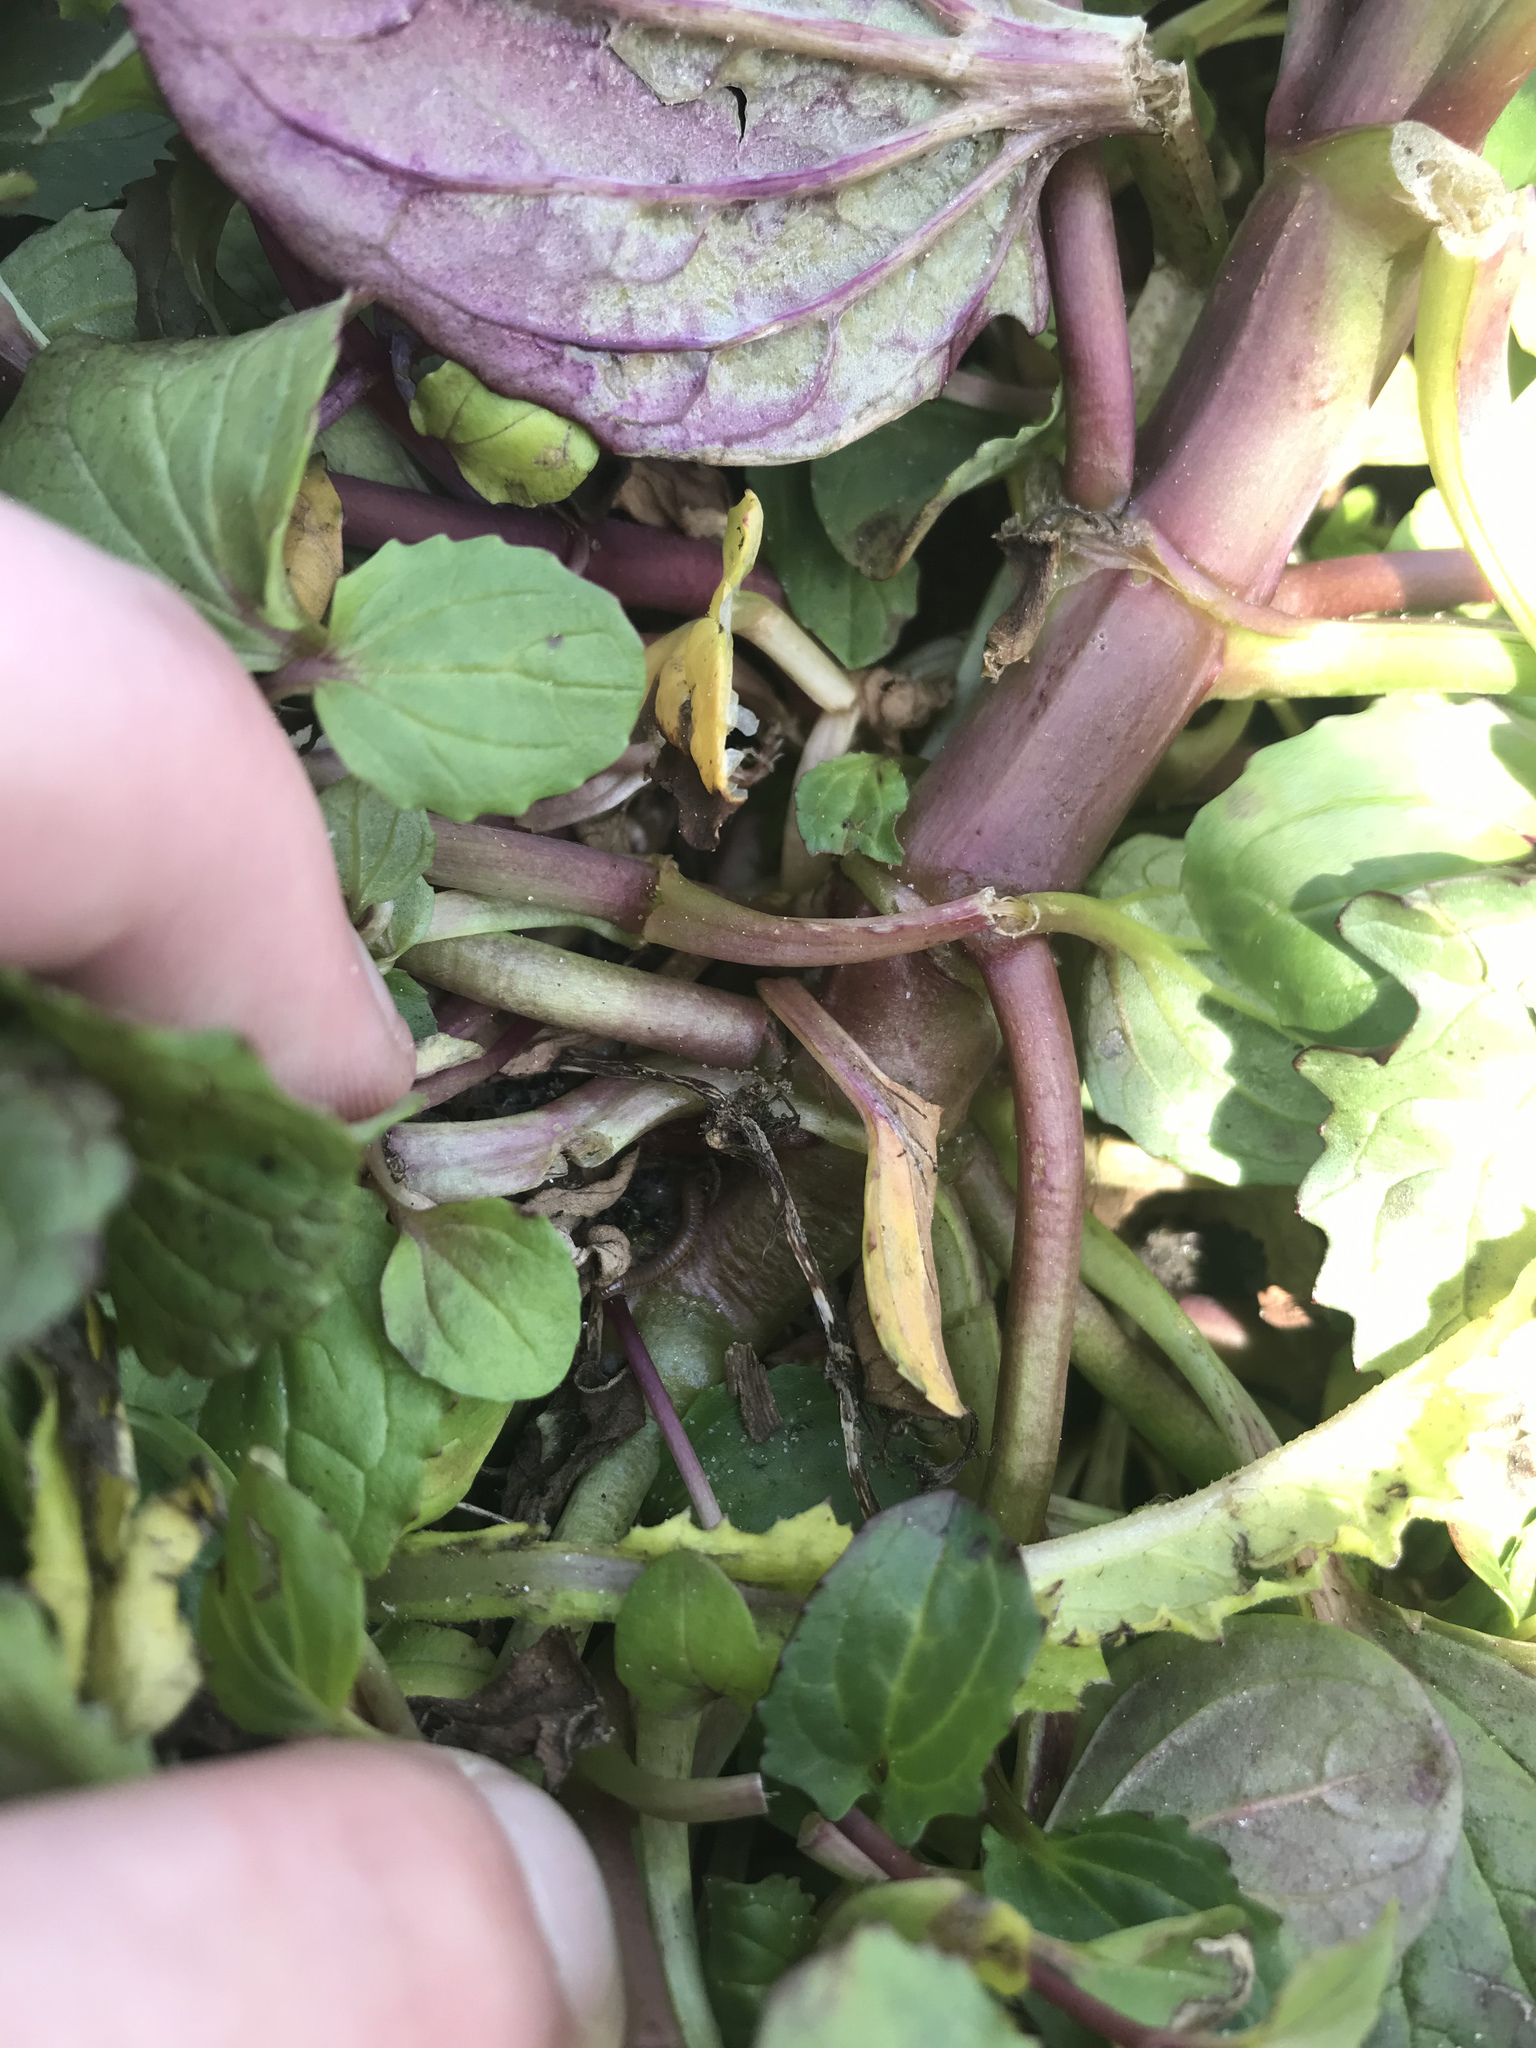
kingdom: Plantae
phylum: Tracheophyta
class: Magnoliopsida
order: Lamiales
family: Phrymaceae
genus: Erythranthe
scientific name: Erythranthe grandis
